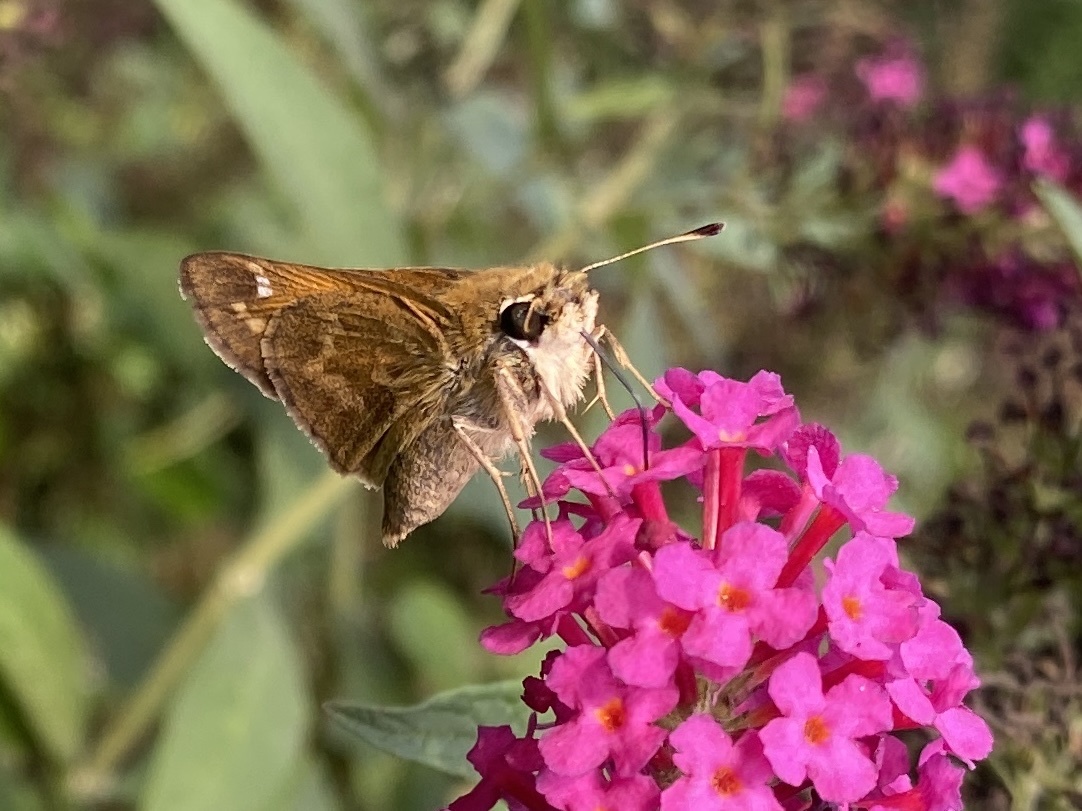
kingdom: Animalia
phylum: Arthropoda
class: Insecta
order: Lepidoptera
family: Hesperiidae
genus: Atalopedes
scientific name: Atalopedes
